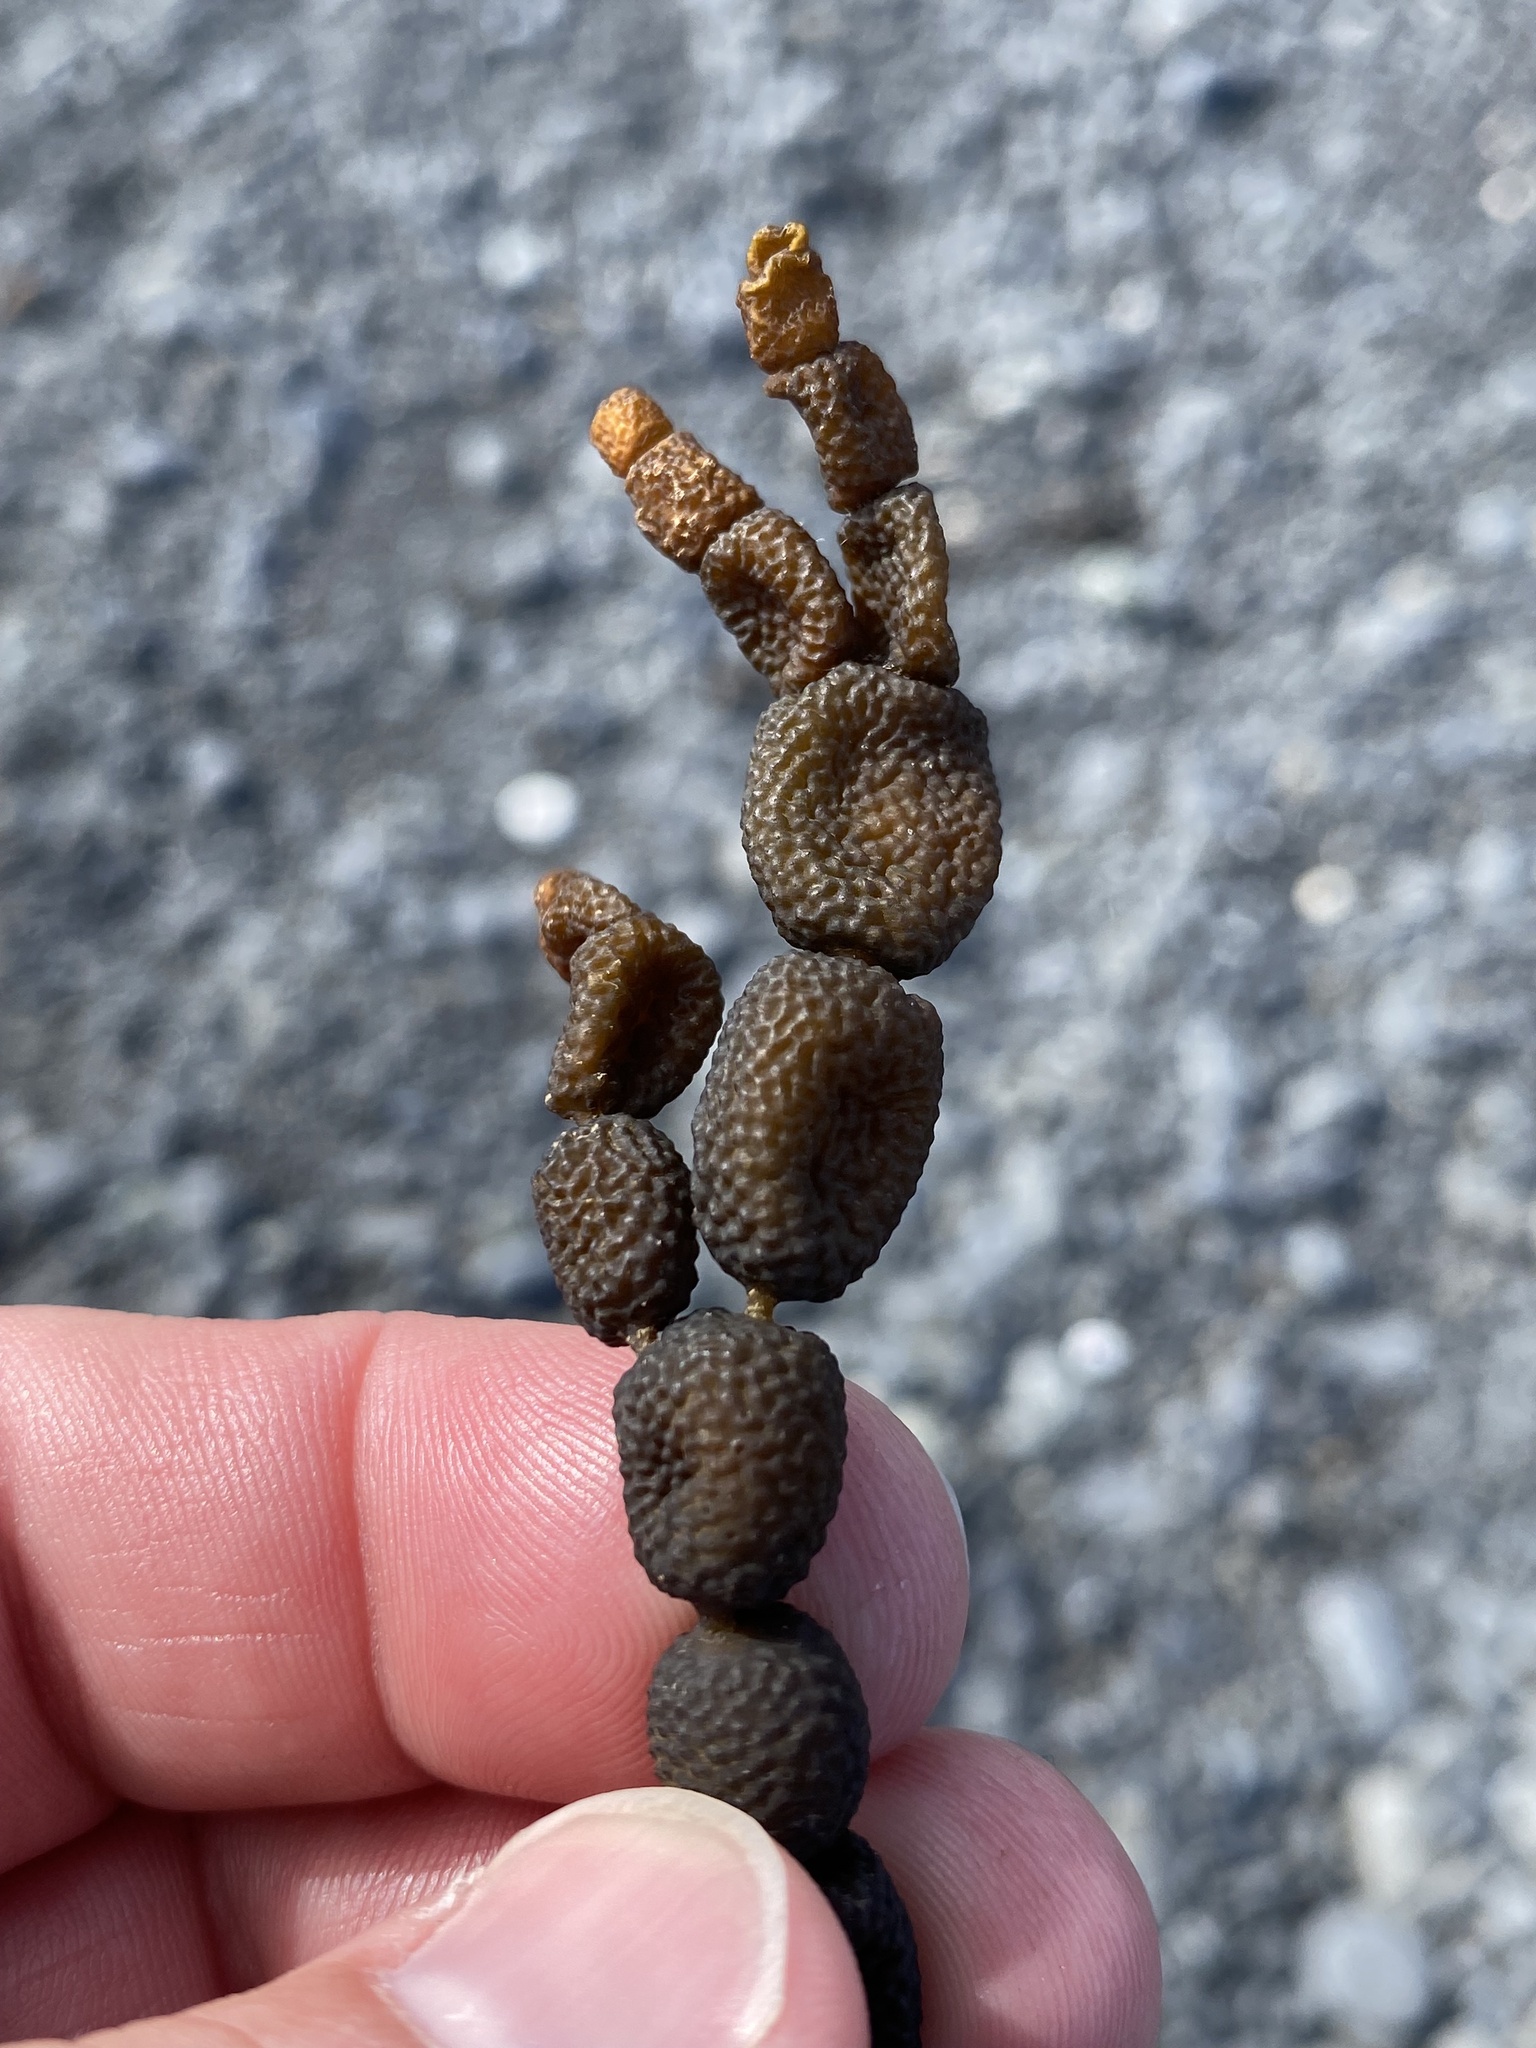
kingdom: Chromista
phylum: Ochrophyta
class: Phaeophyceae
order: Fucales
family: Hormosiraceae
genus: Hormosira
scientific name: Hormosira banksii
